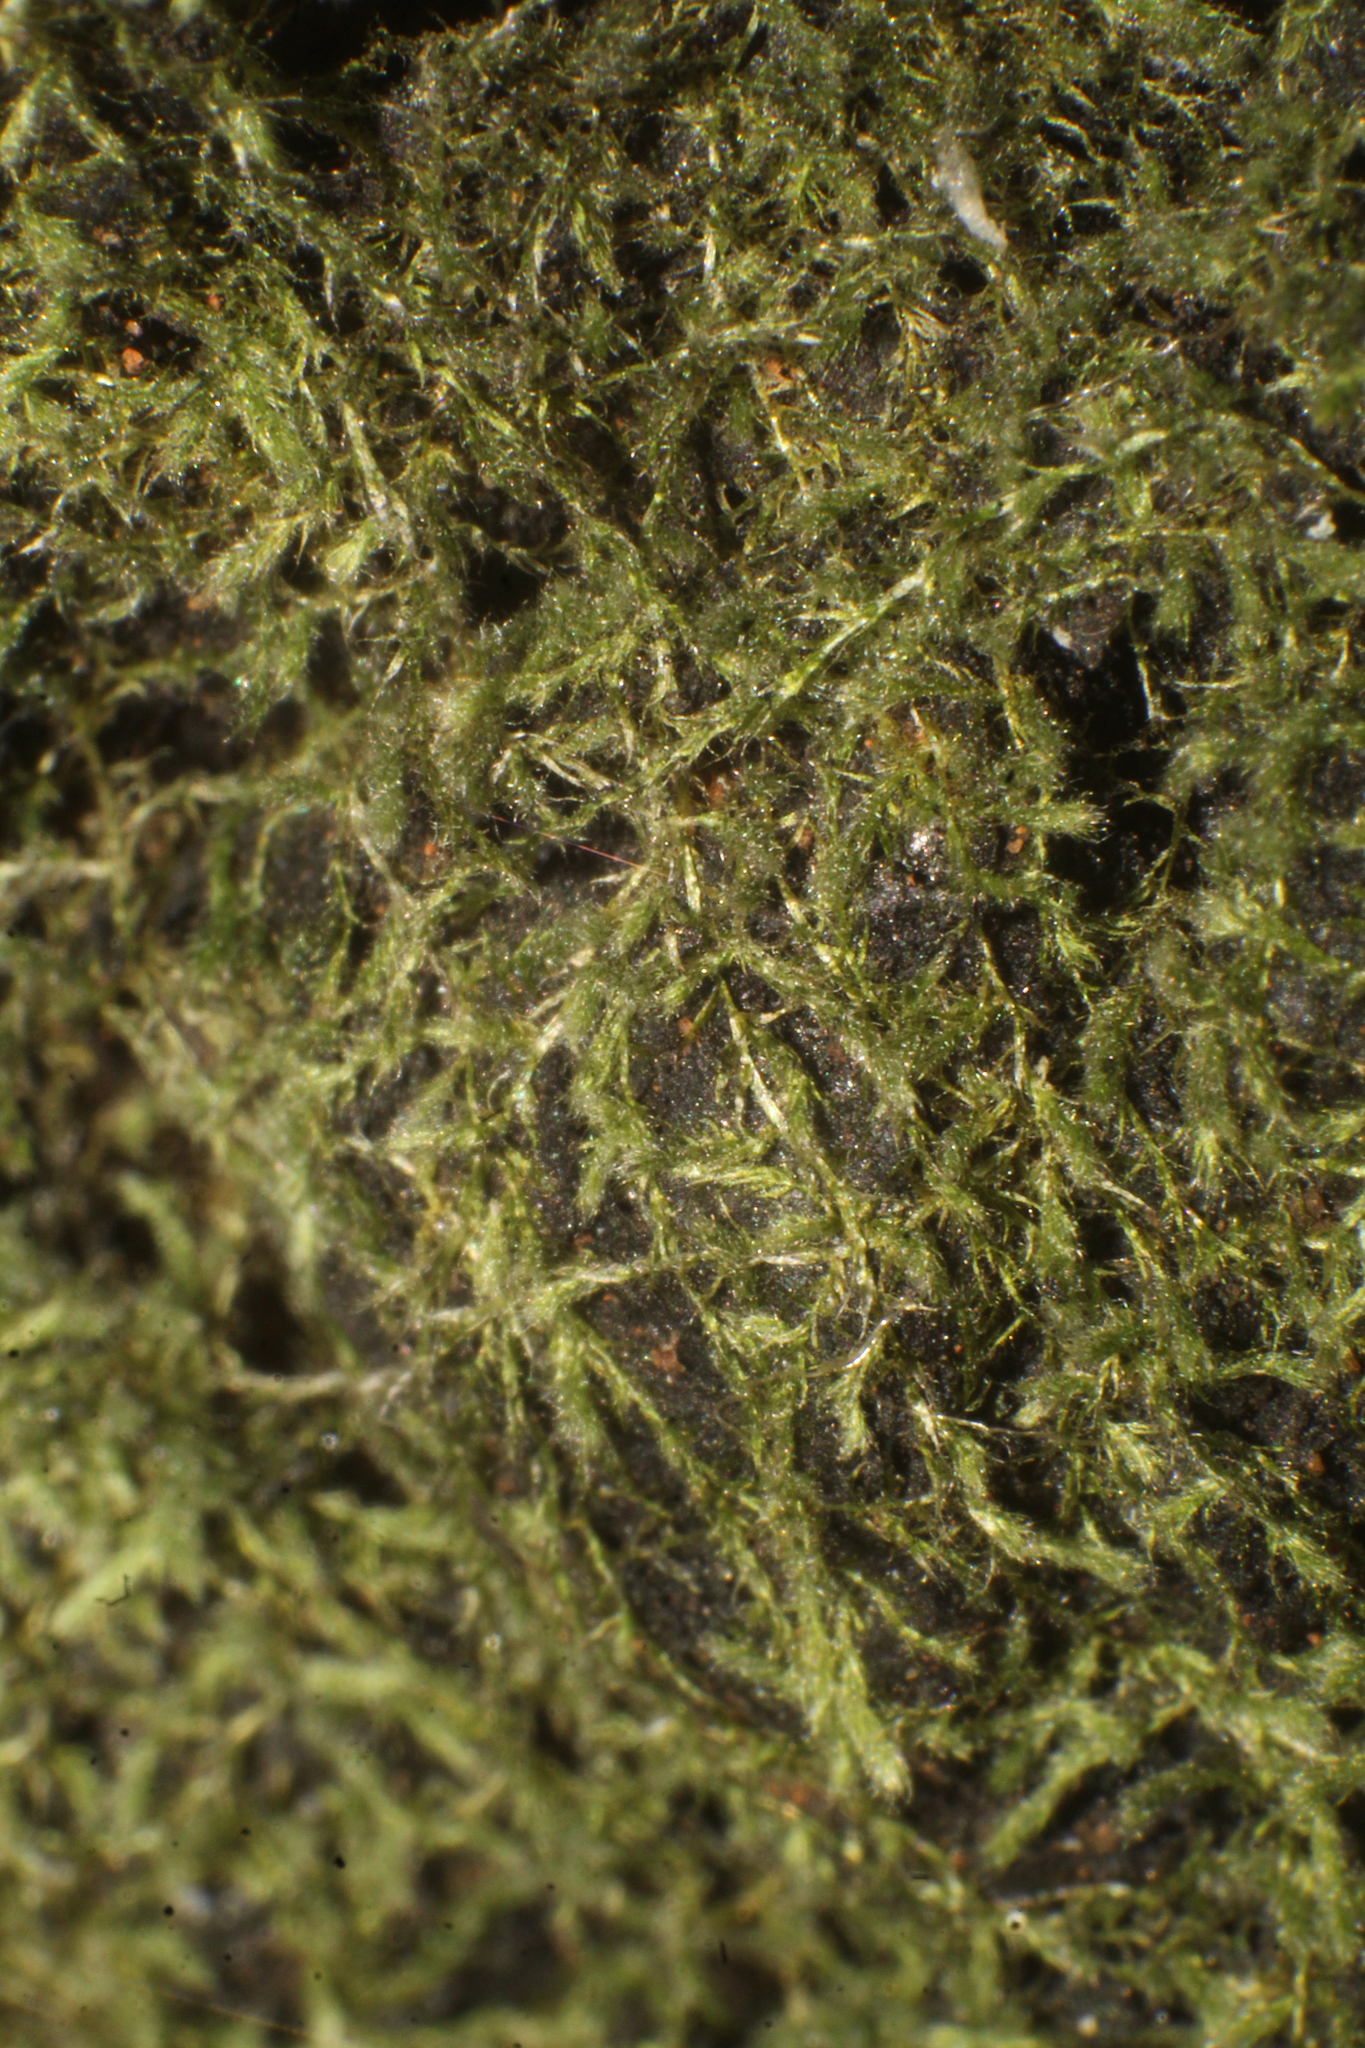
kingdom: Plantae
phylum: Bryophyta
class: Bryopsida
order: Hypnales
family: Fabroniaceae
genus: Fabronia
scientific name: Fabronia hampeana
